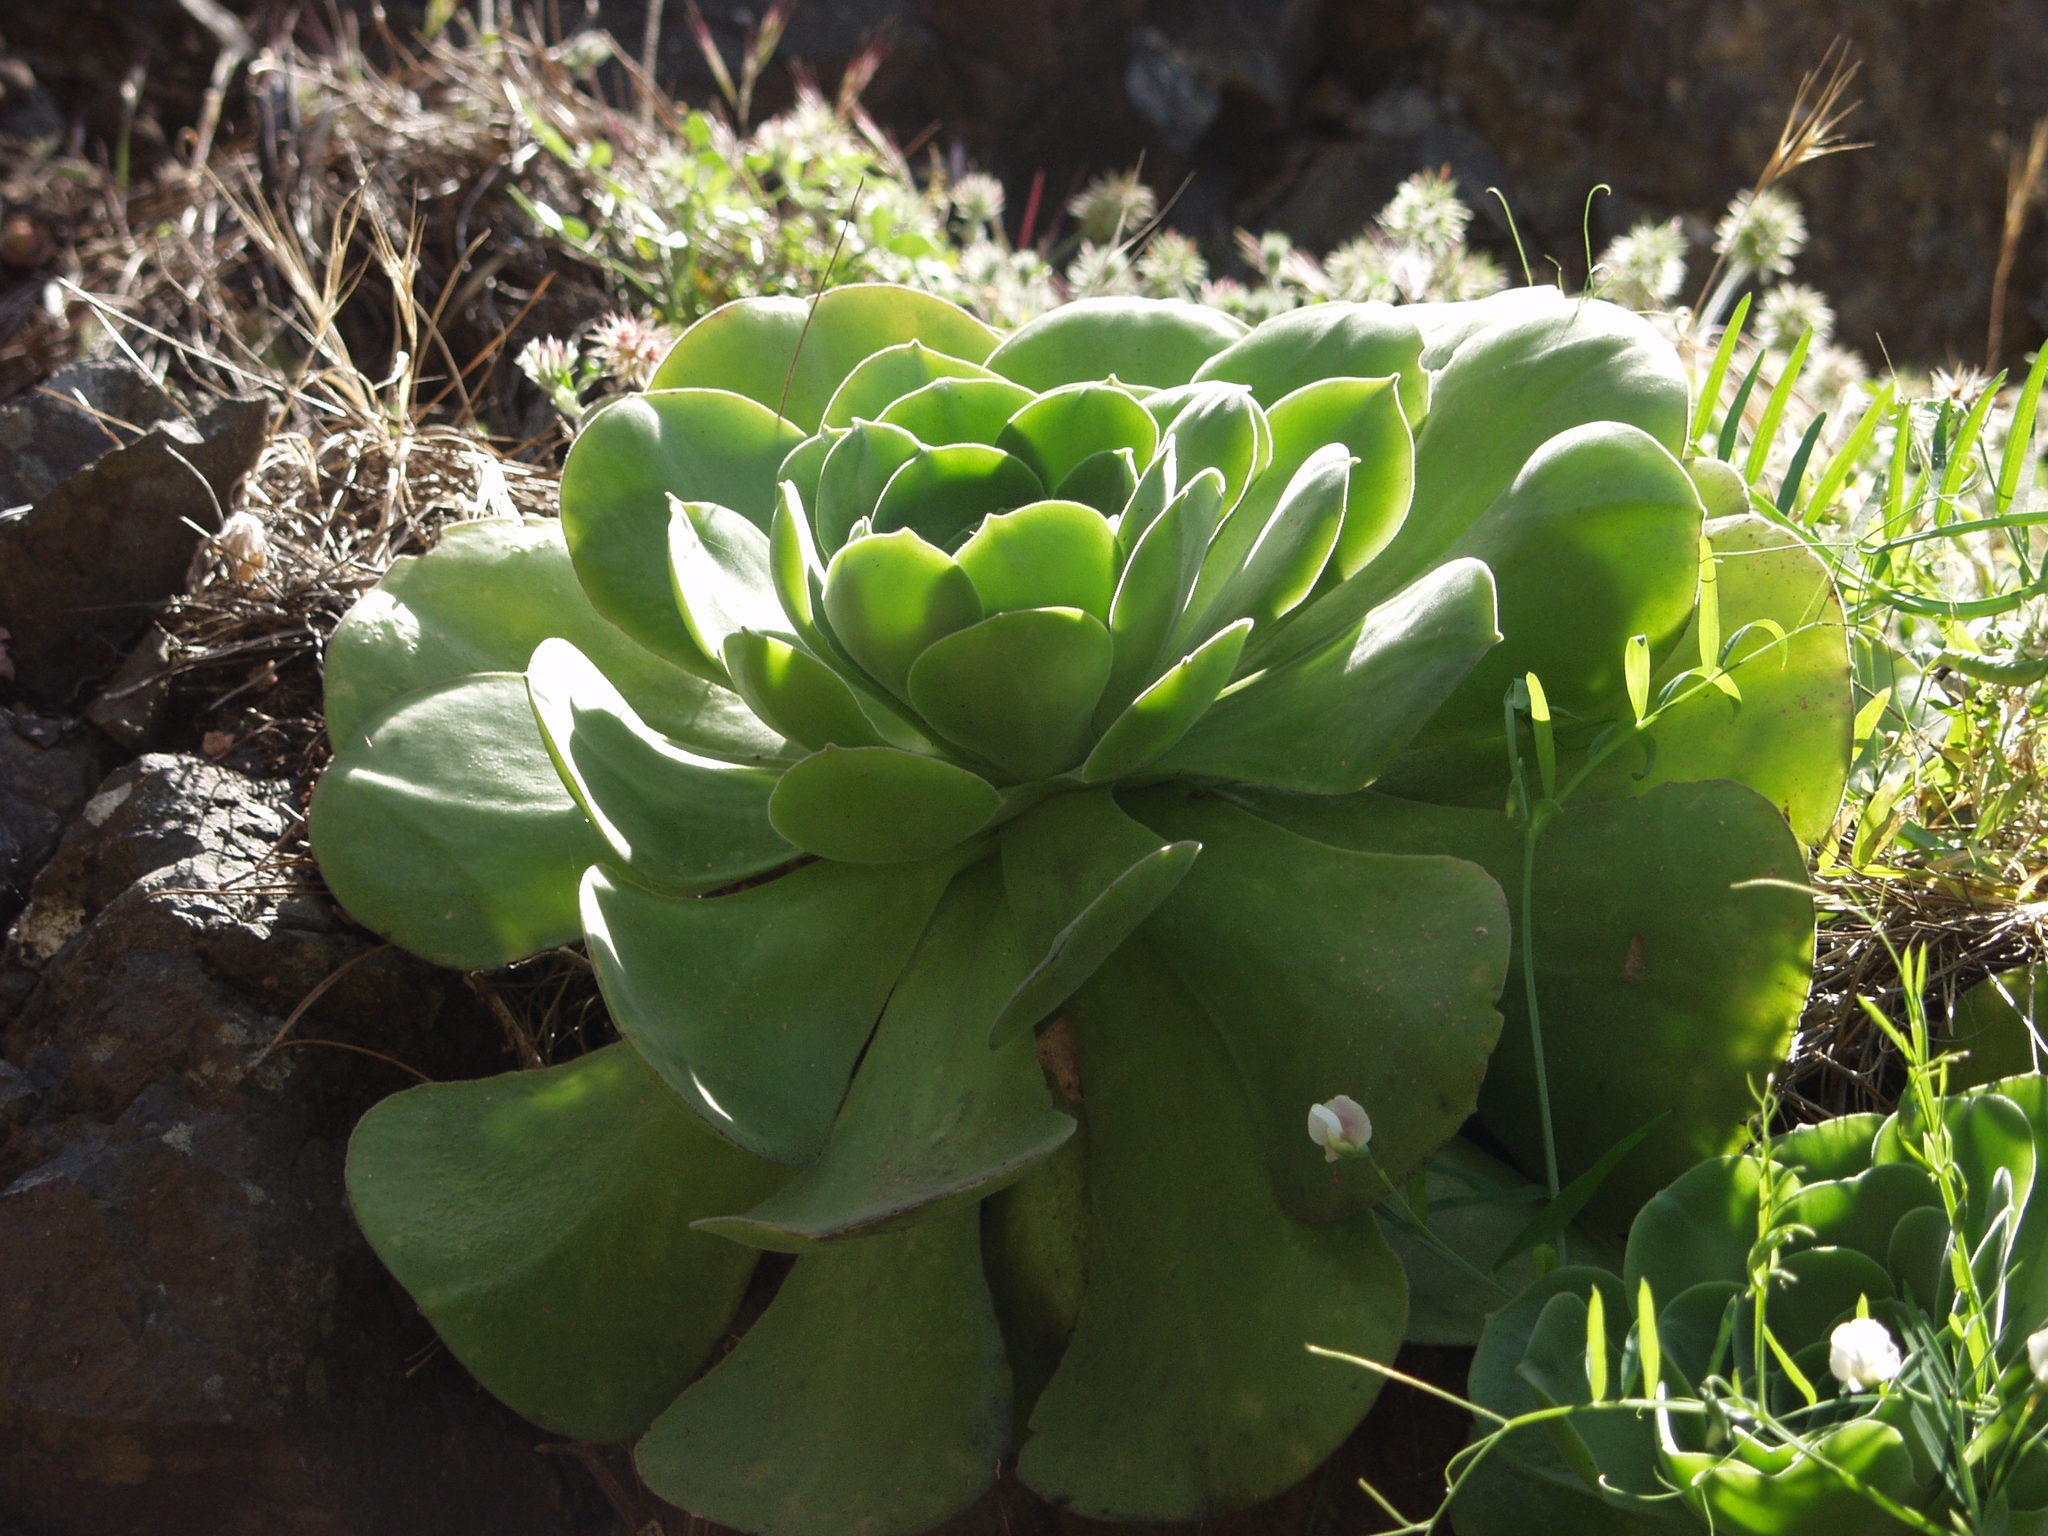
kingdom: Plantae
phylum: Tracheophyta
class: Magnoliopsida
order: Saxifragales
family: Crassulaceae
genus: Aeonium
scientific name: Aeonium canariense
